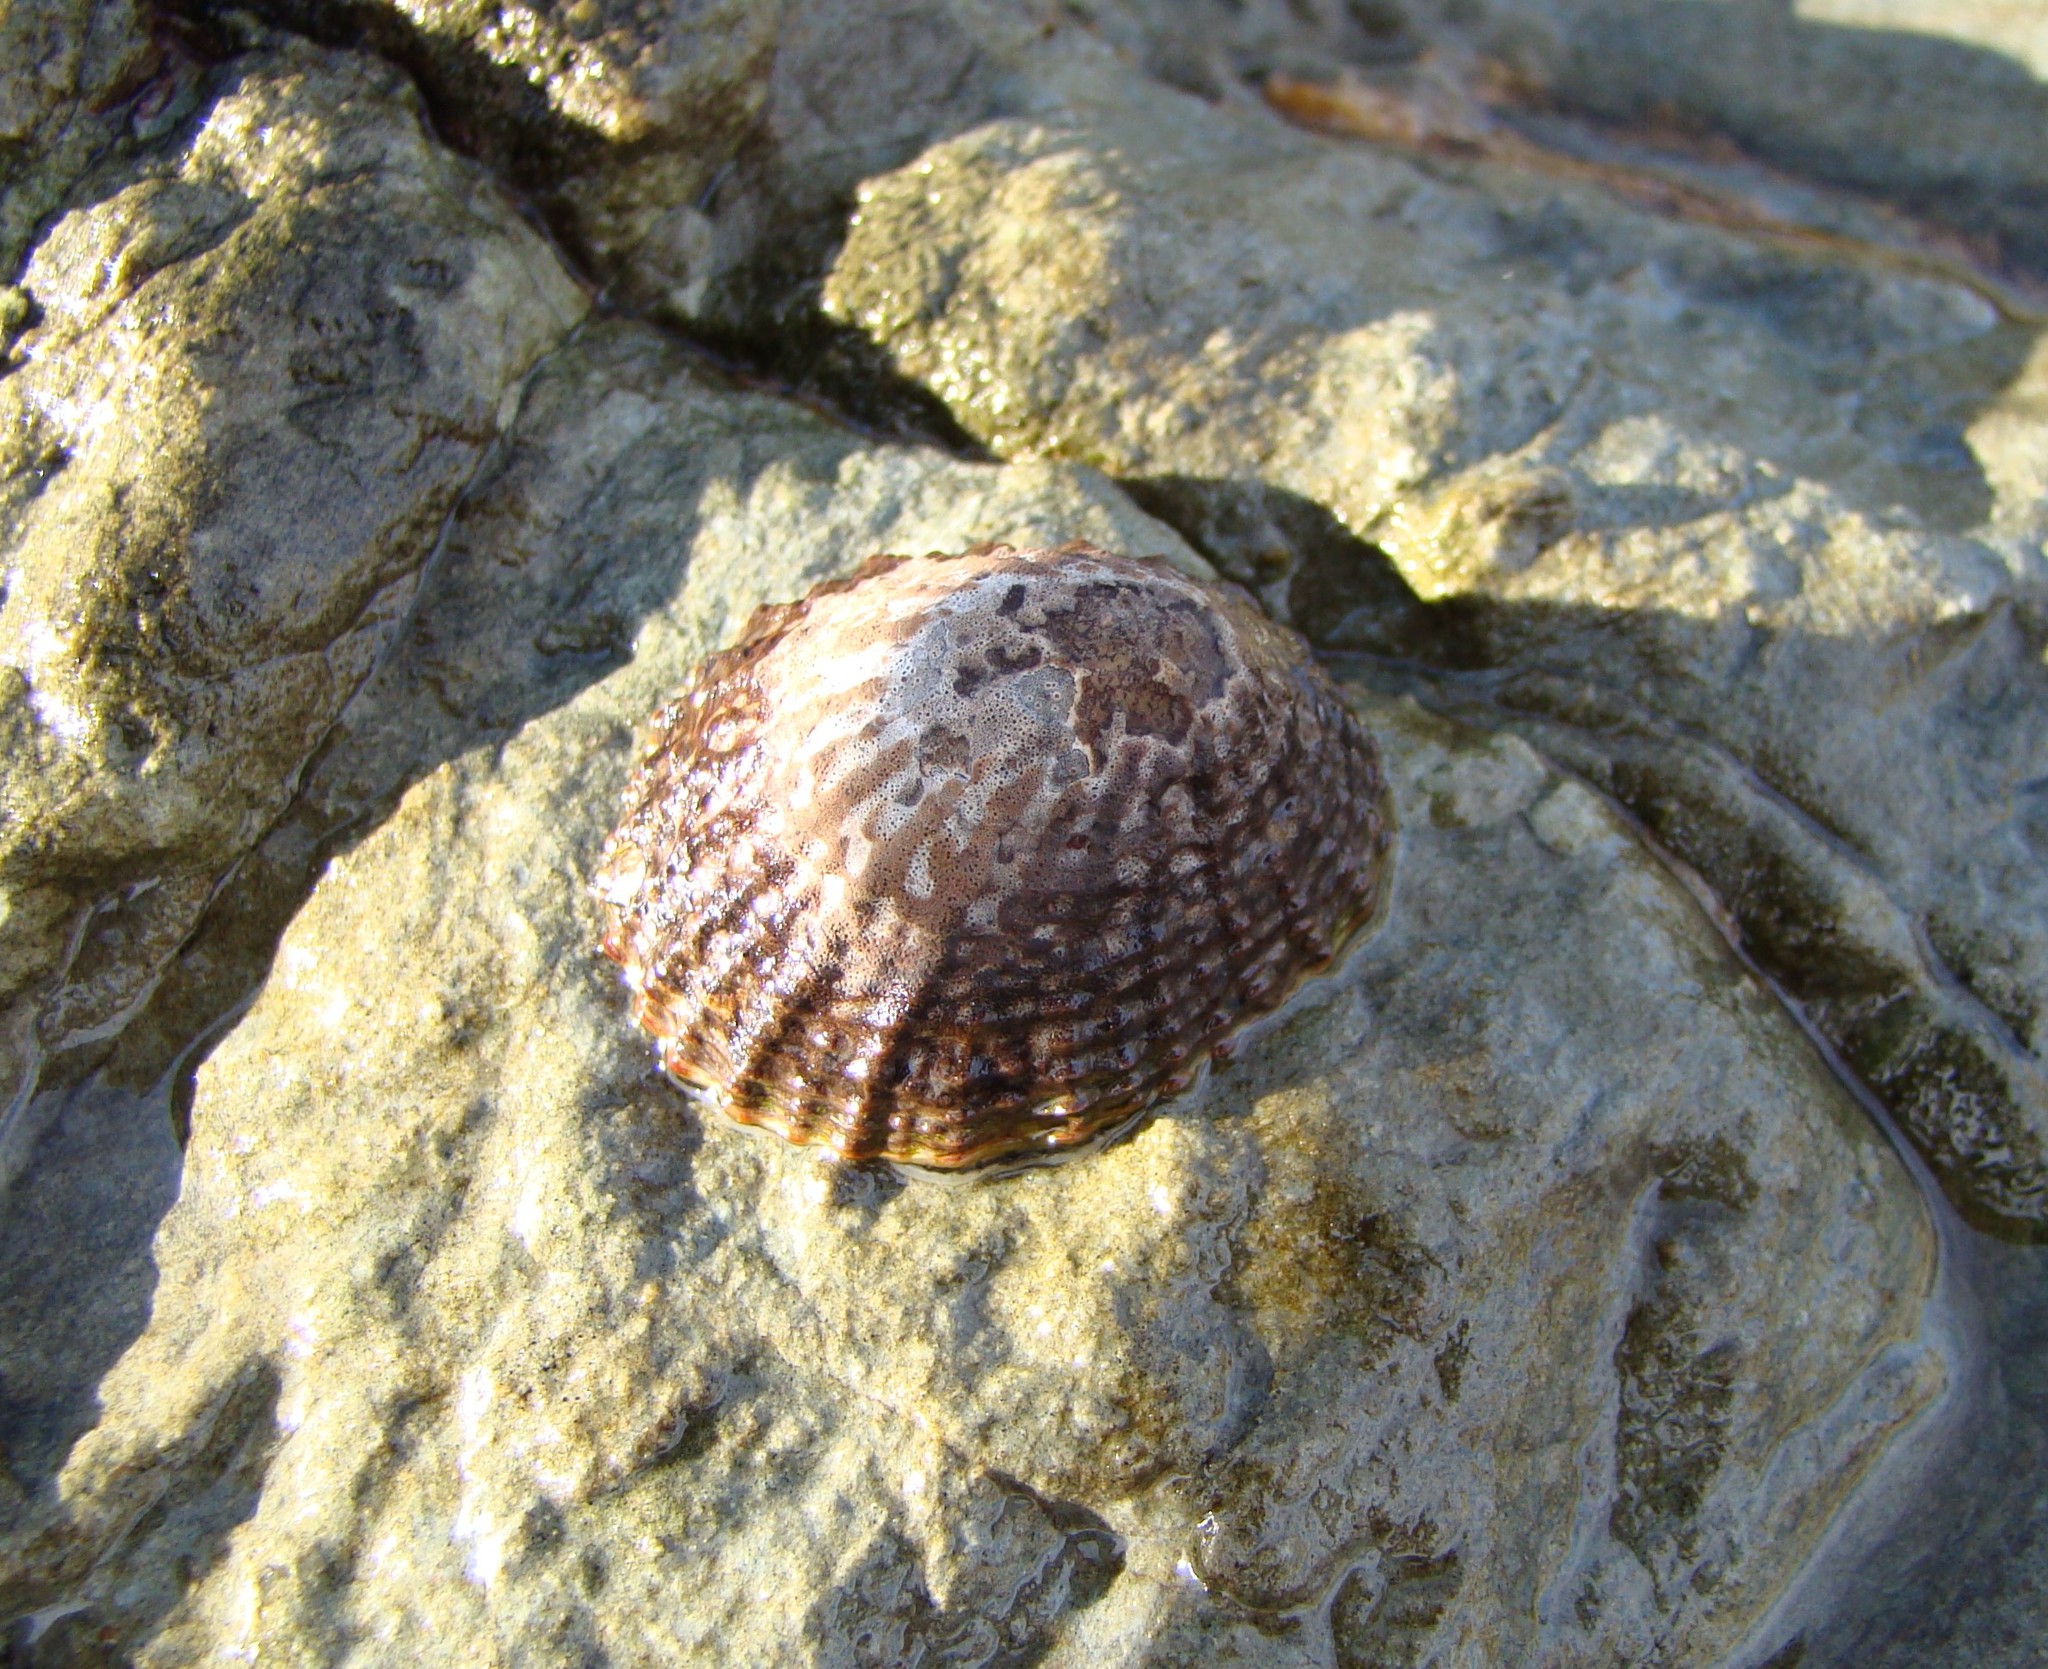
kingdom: Animalia
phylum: Mollusca
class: Gastropoda
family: Nacellidae
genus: Cellana
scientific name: Cellana denticulata
